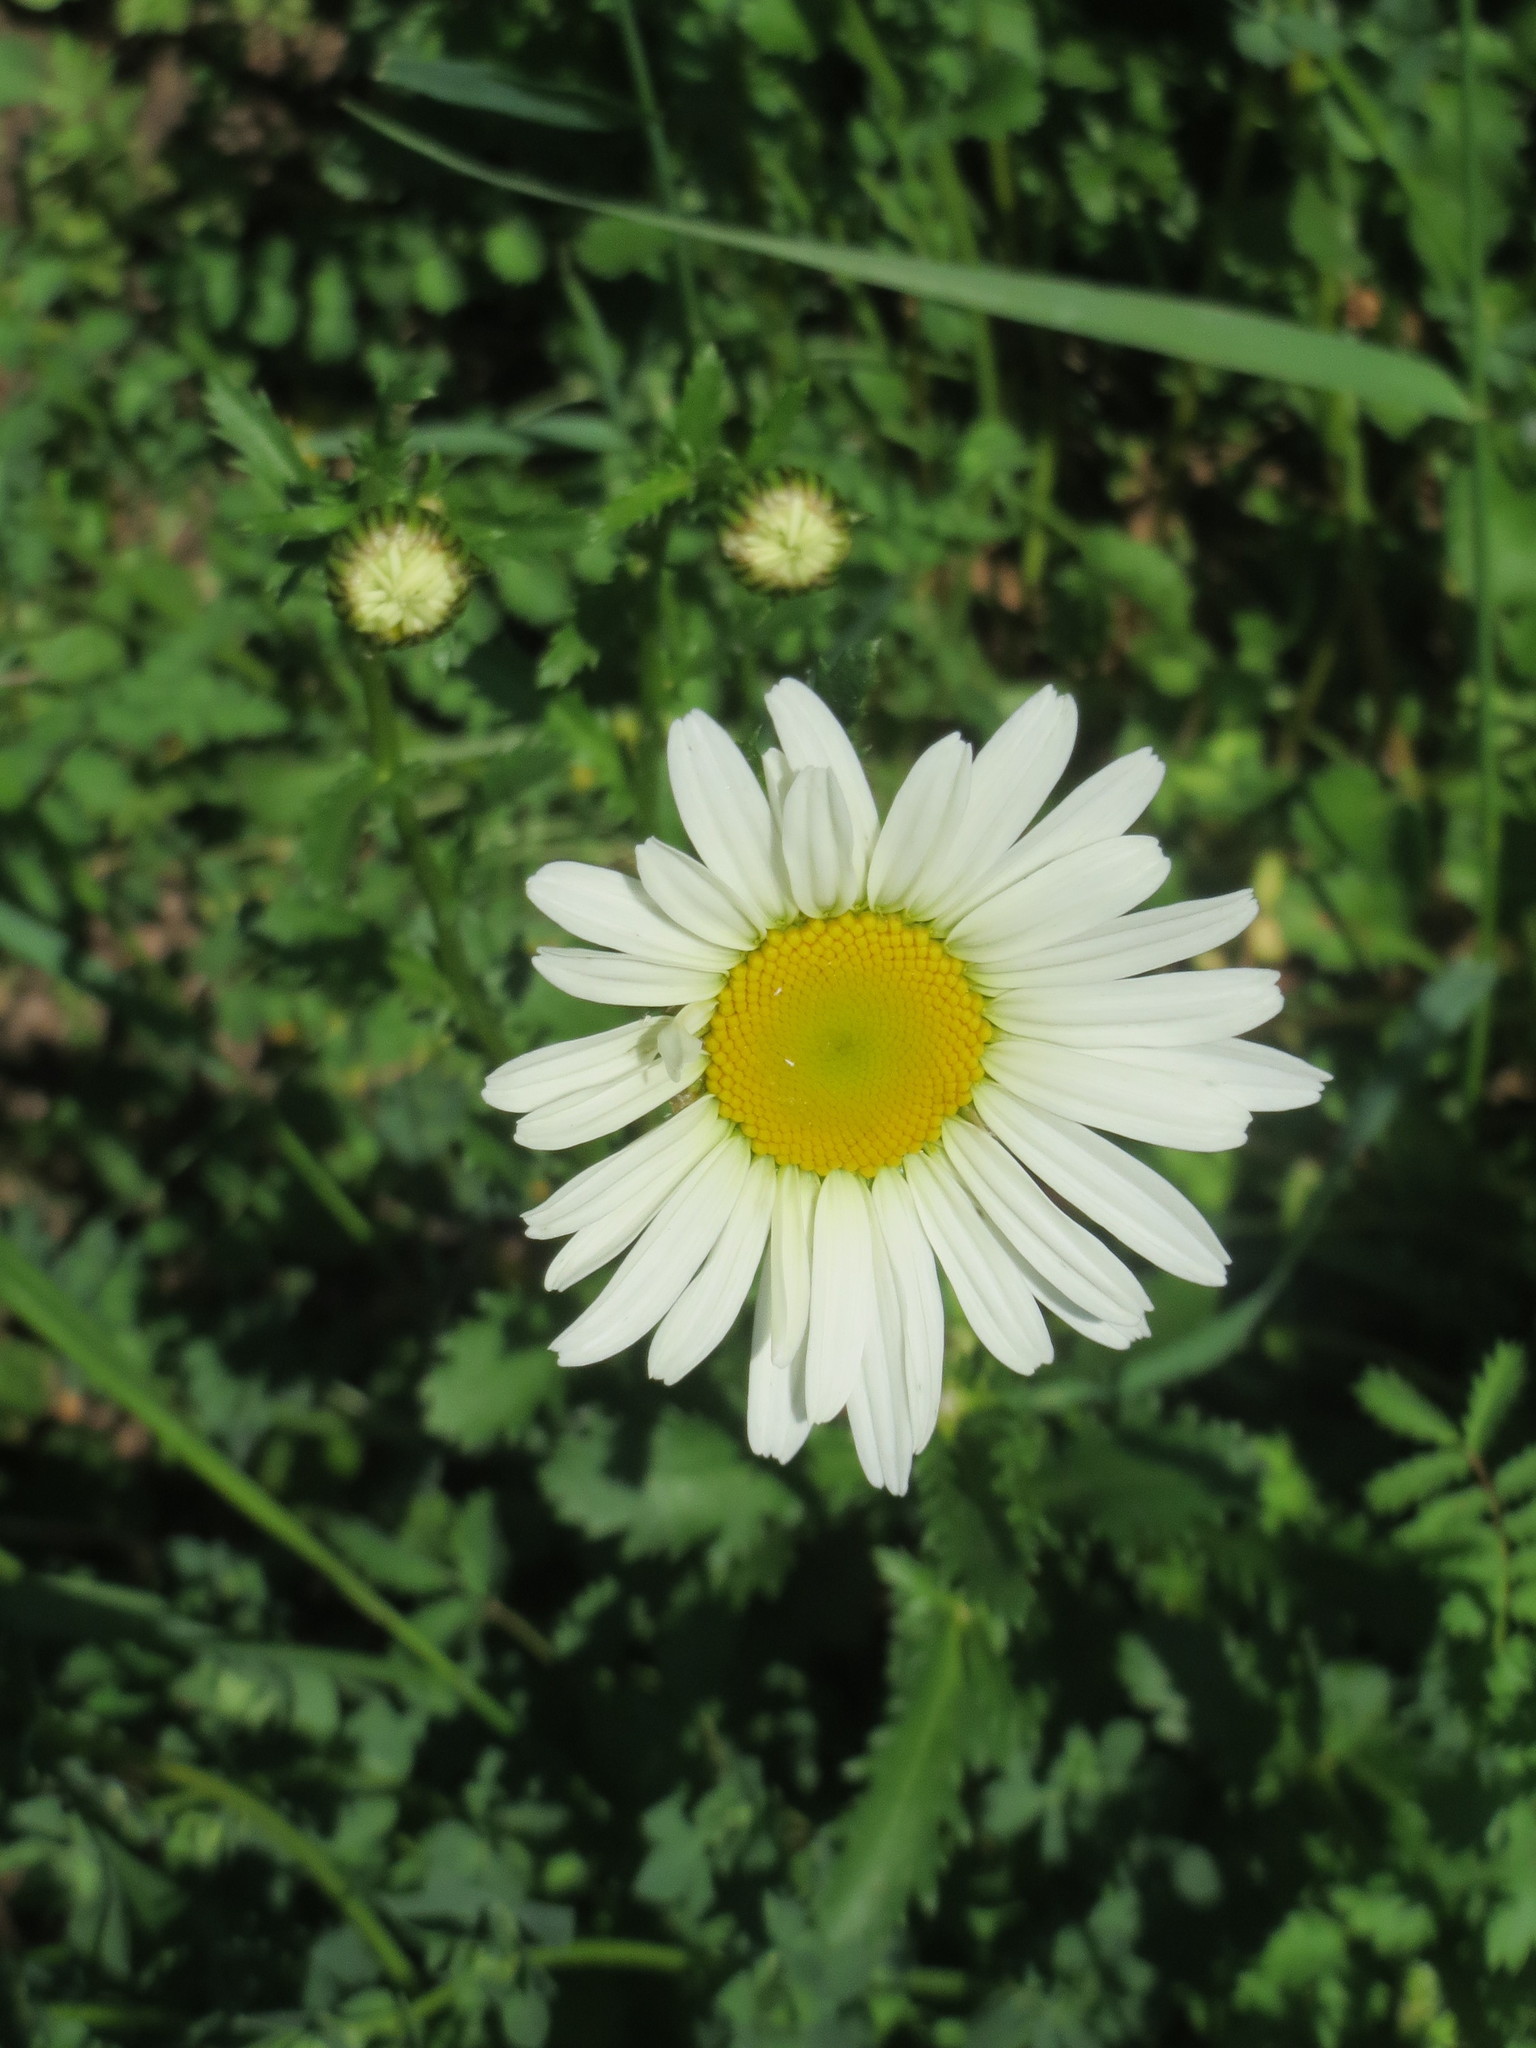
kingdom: Plantae
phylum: Tracheophyta
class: Magnoliopsida
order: Asterales
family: Asteraceae
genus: Leucanthemum
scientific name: Leucanthemum vulgare
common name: Oxeye daisy
